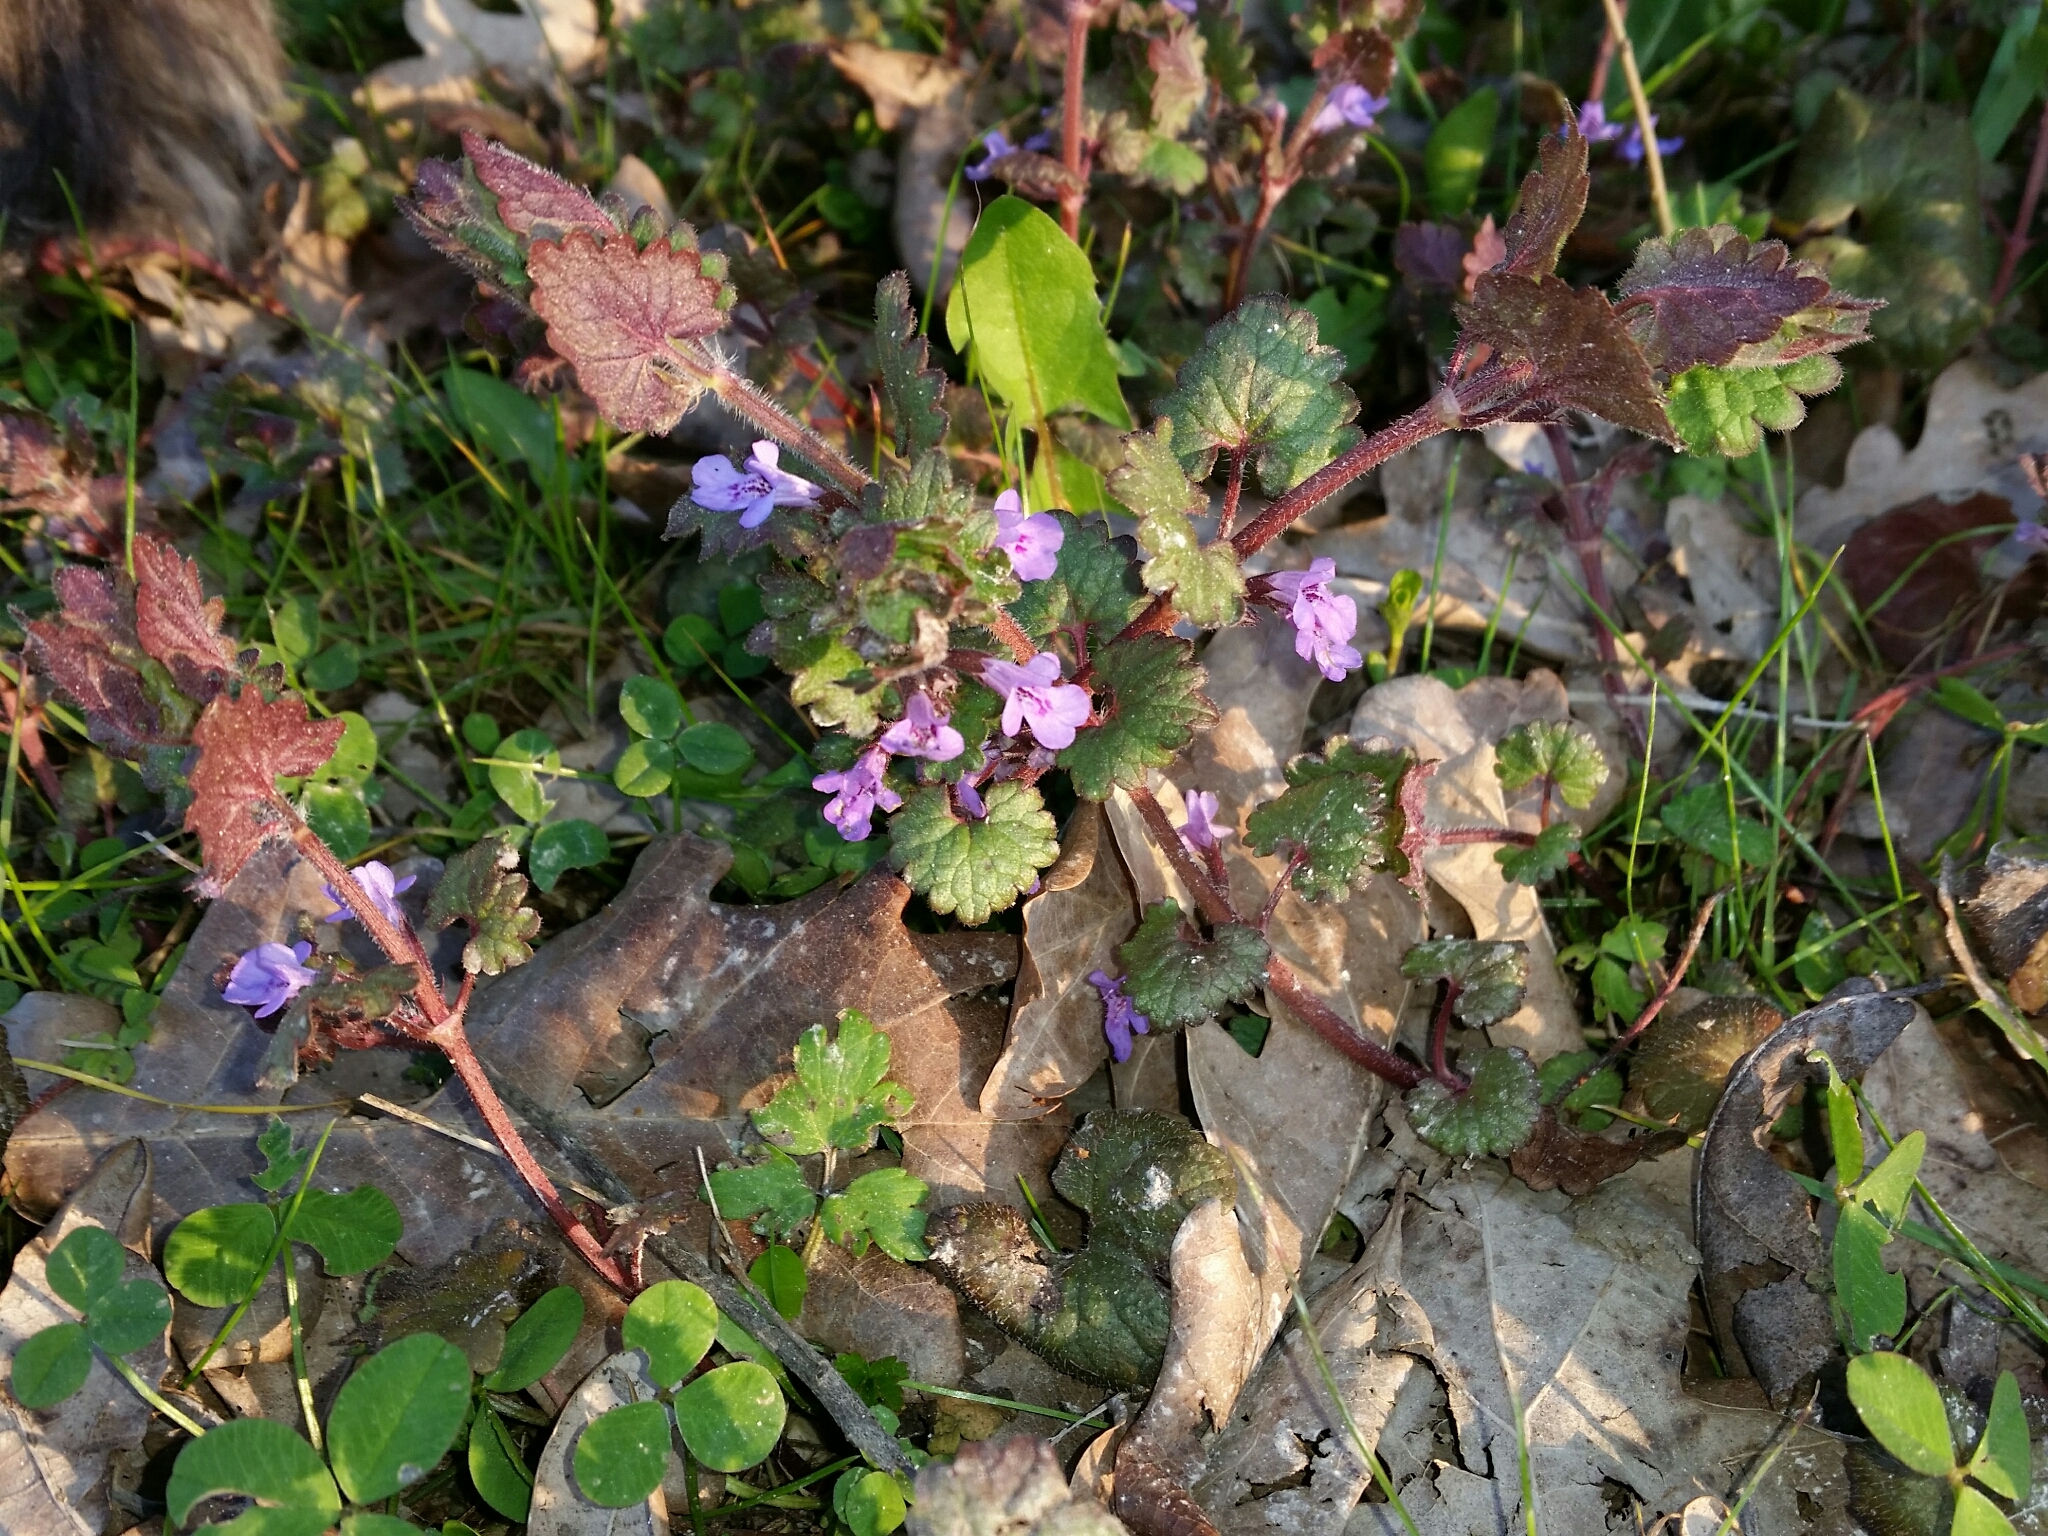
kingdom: Plantae
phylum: Tracheophyta
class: Magnoliopsida
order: Lamiales
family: Lamiaceae
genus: Glechoma
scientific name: Glechoma hederacea
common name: Ground ivy
